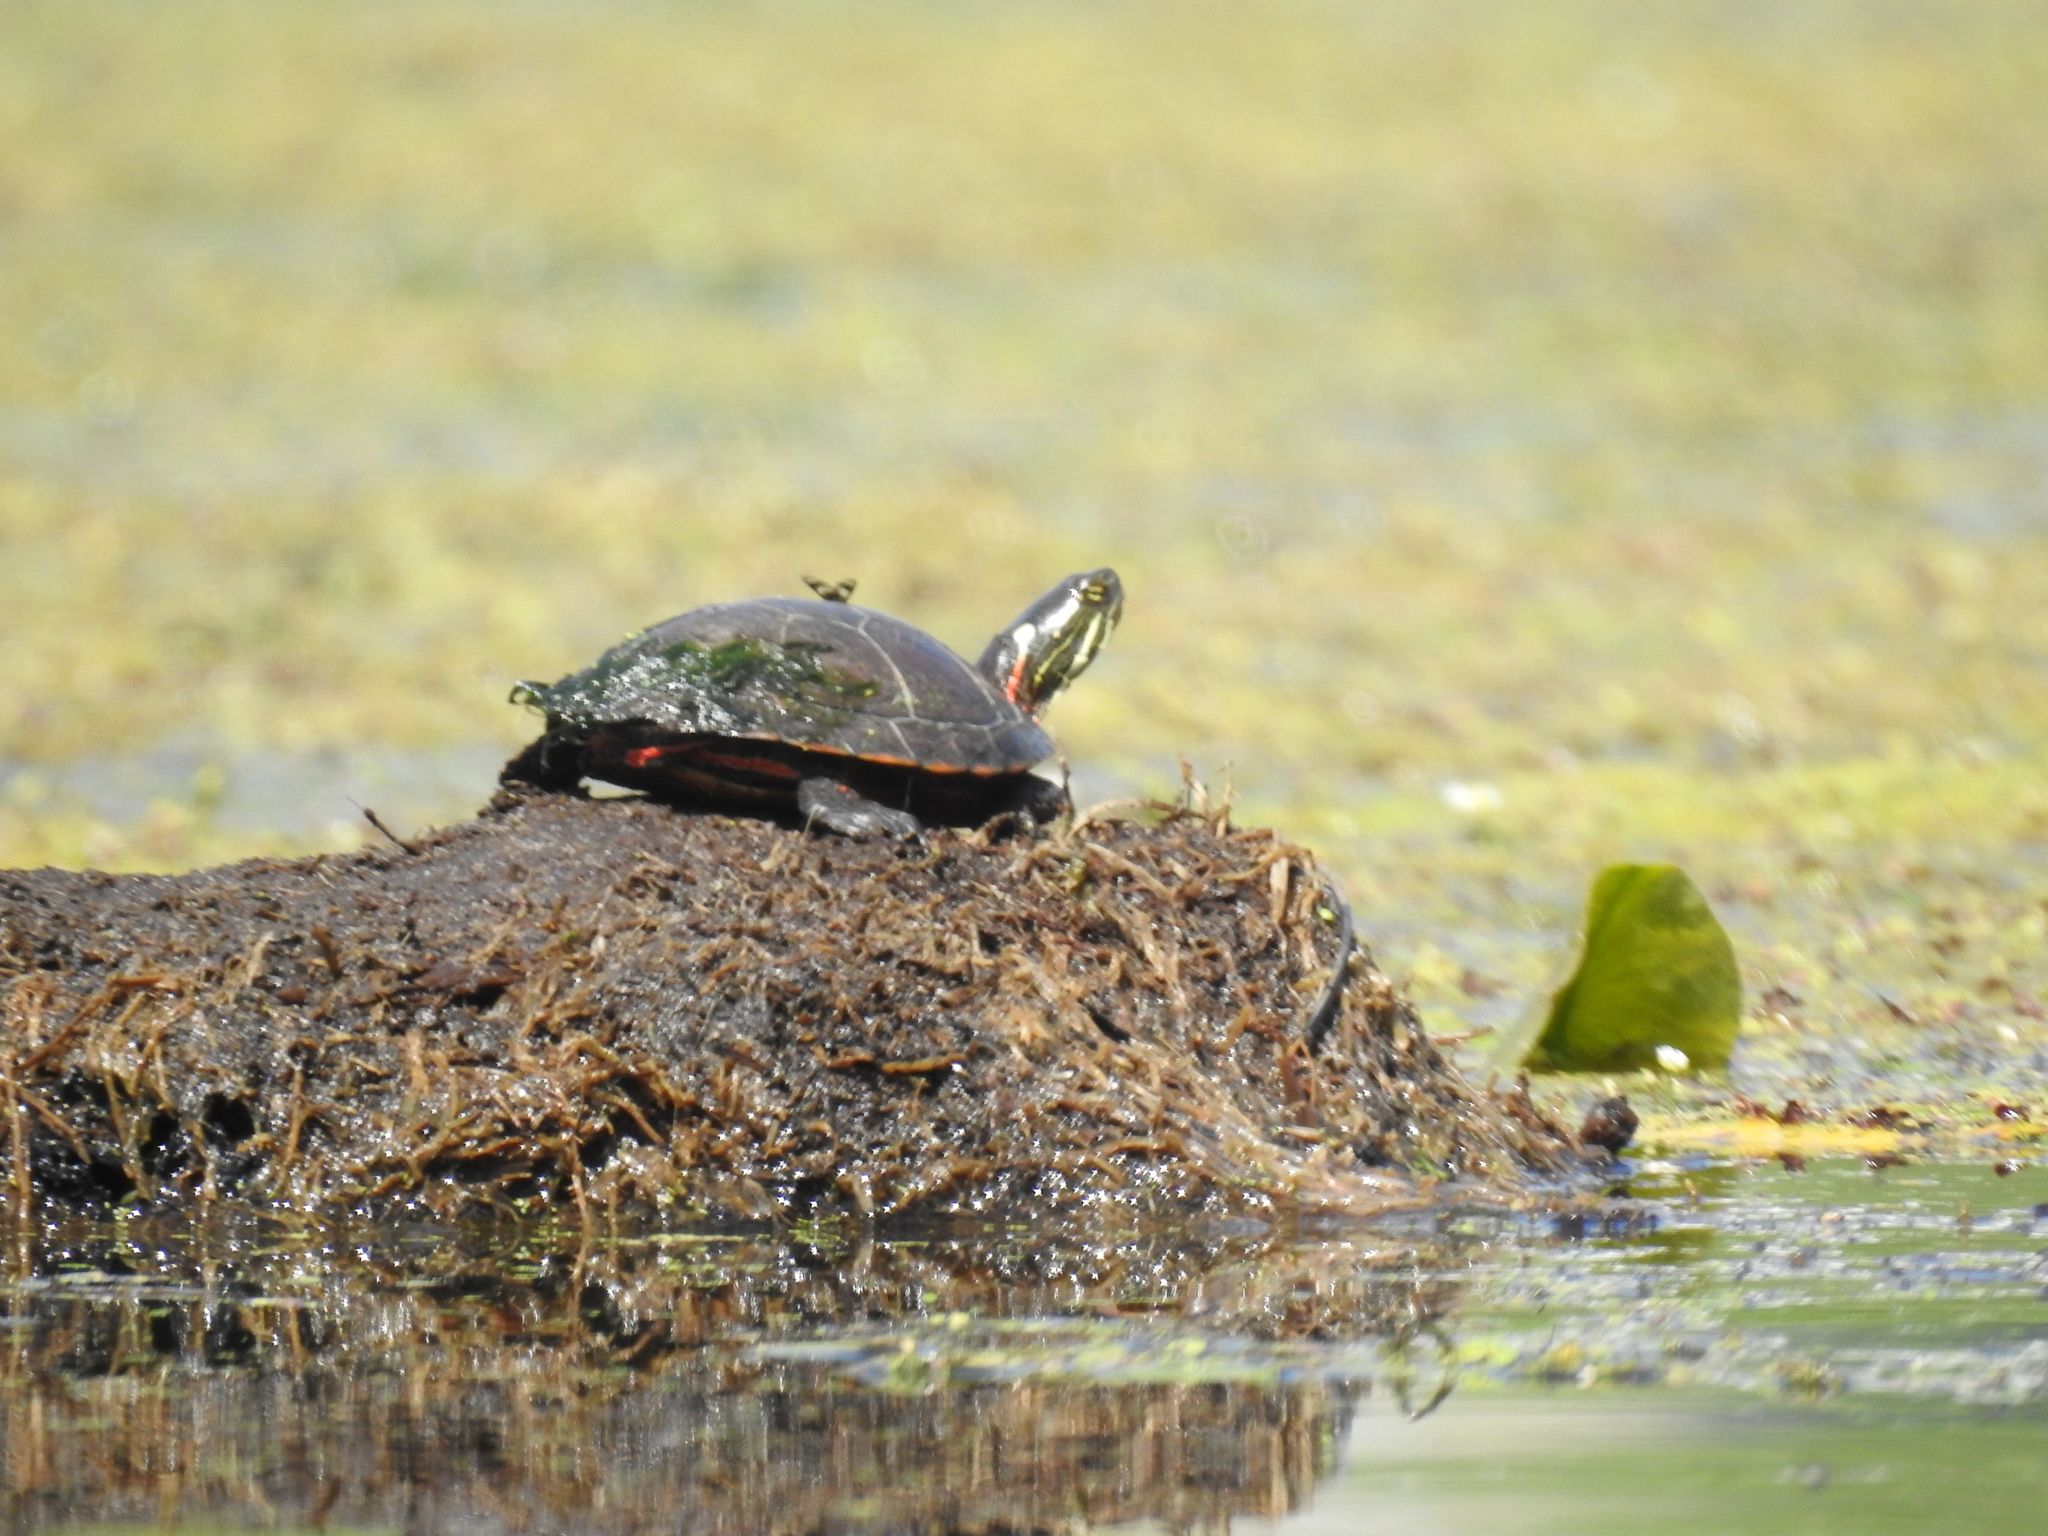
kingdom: Animalia
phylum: Chordata
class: Testudines
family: Emydidae
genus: Chrysemys
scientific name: Chrysemys picta
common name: Painted turtle
